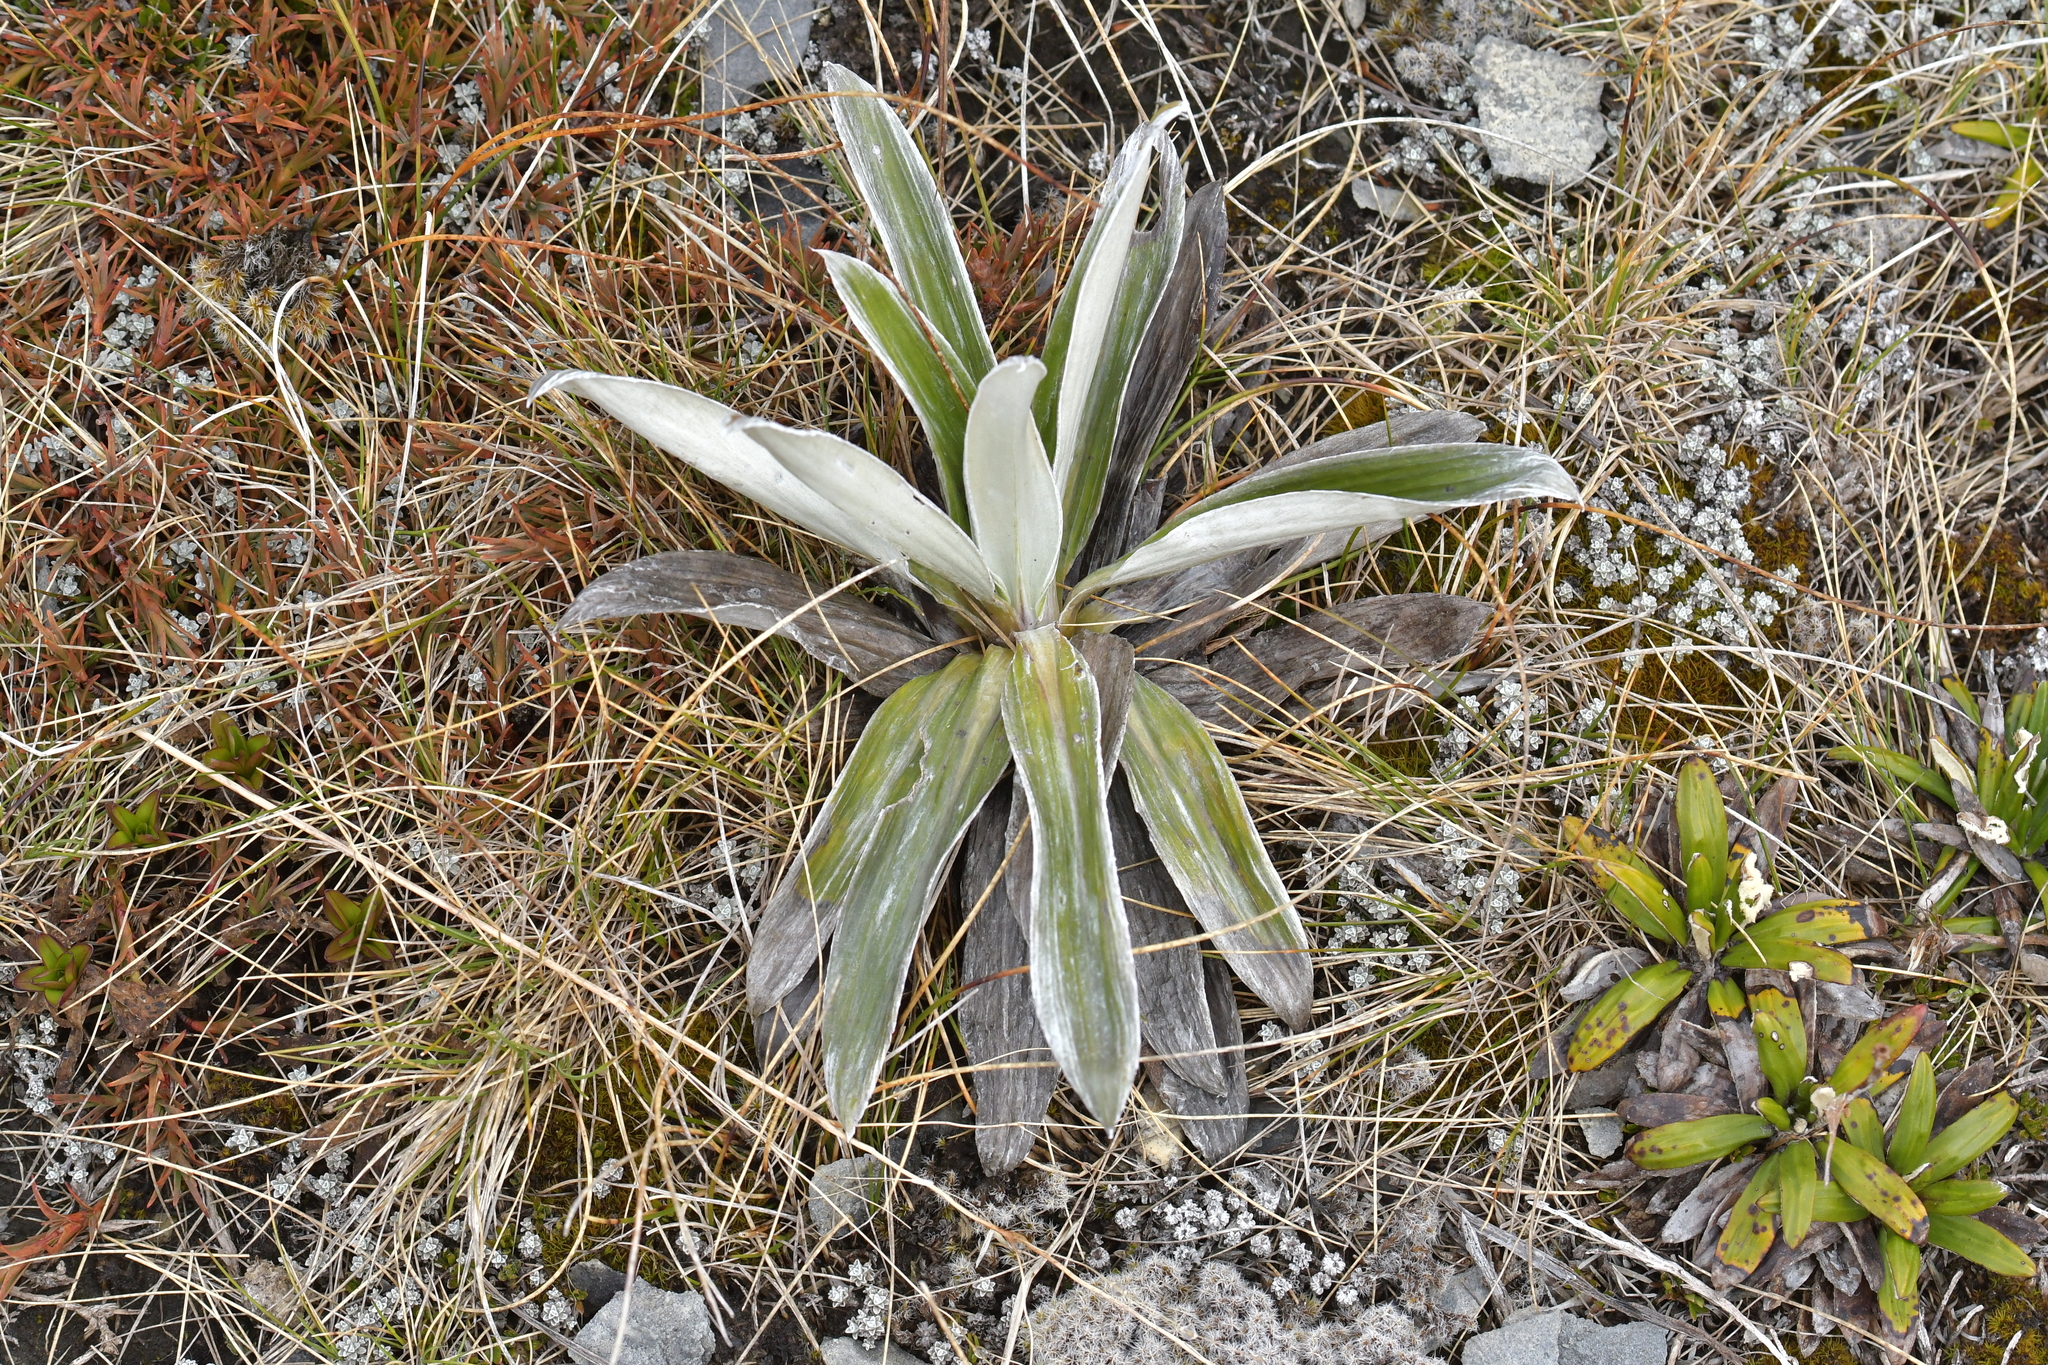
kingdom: Plantae
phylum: Tracheophyta
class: Magnoliopsida
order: Asterales
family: Asteraceae
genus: Celmisia
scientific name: Celmisia semicordata
